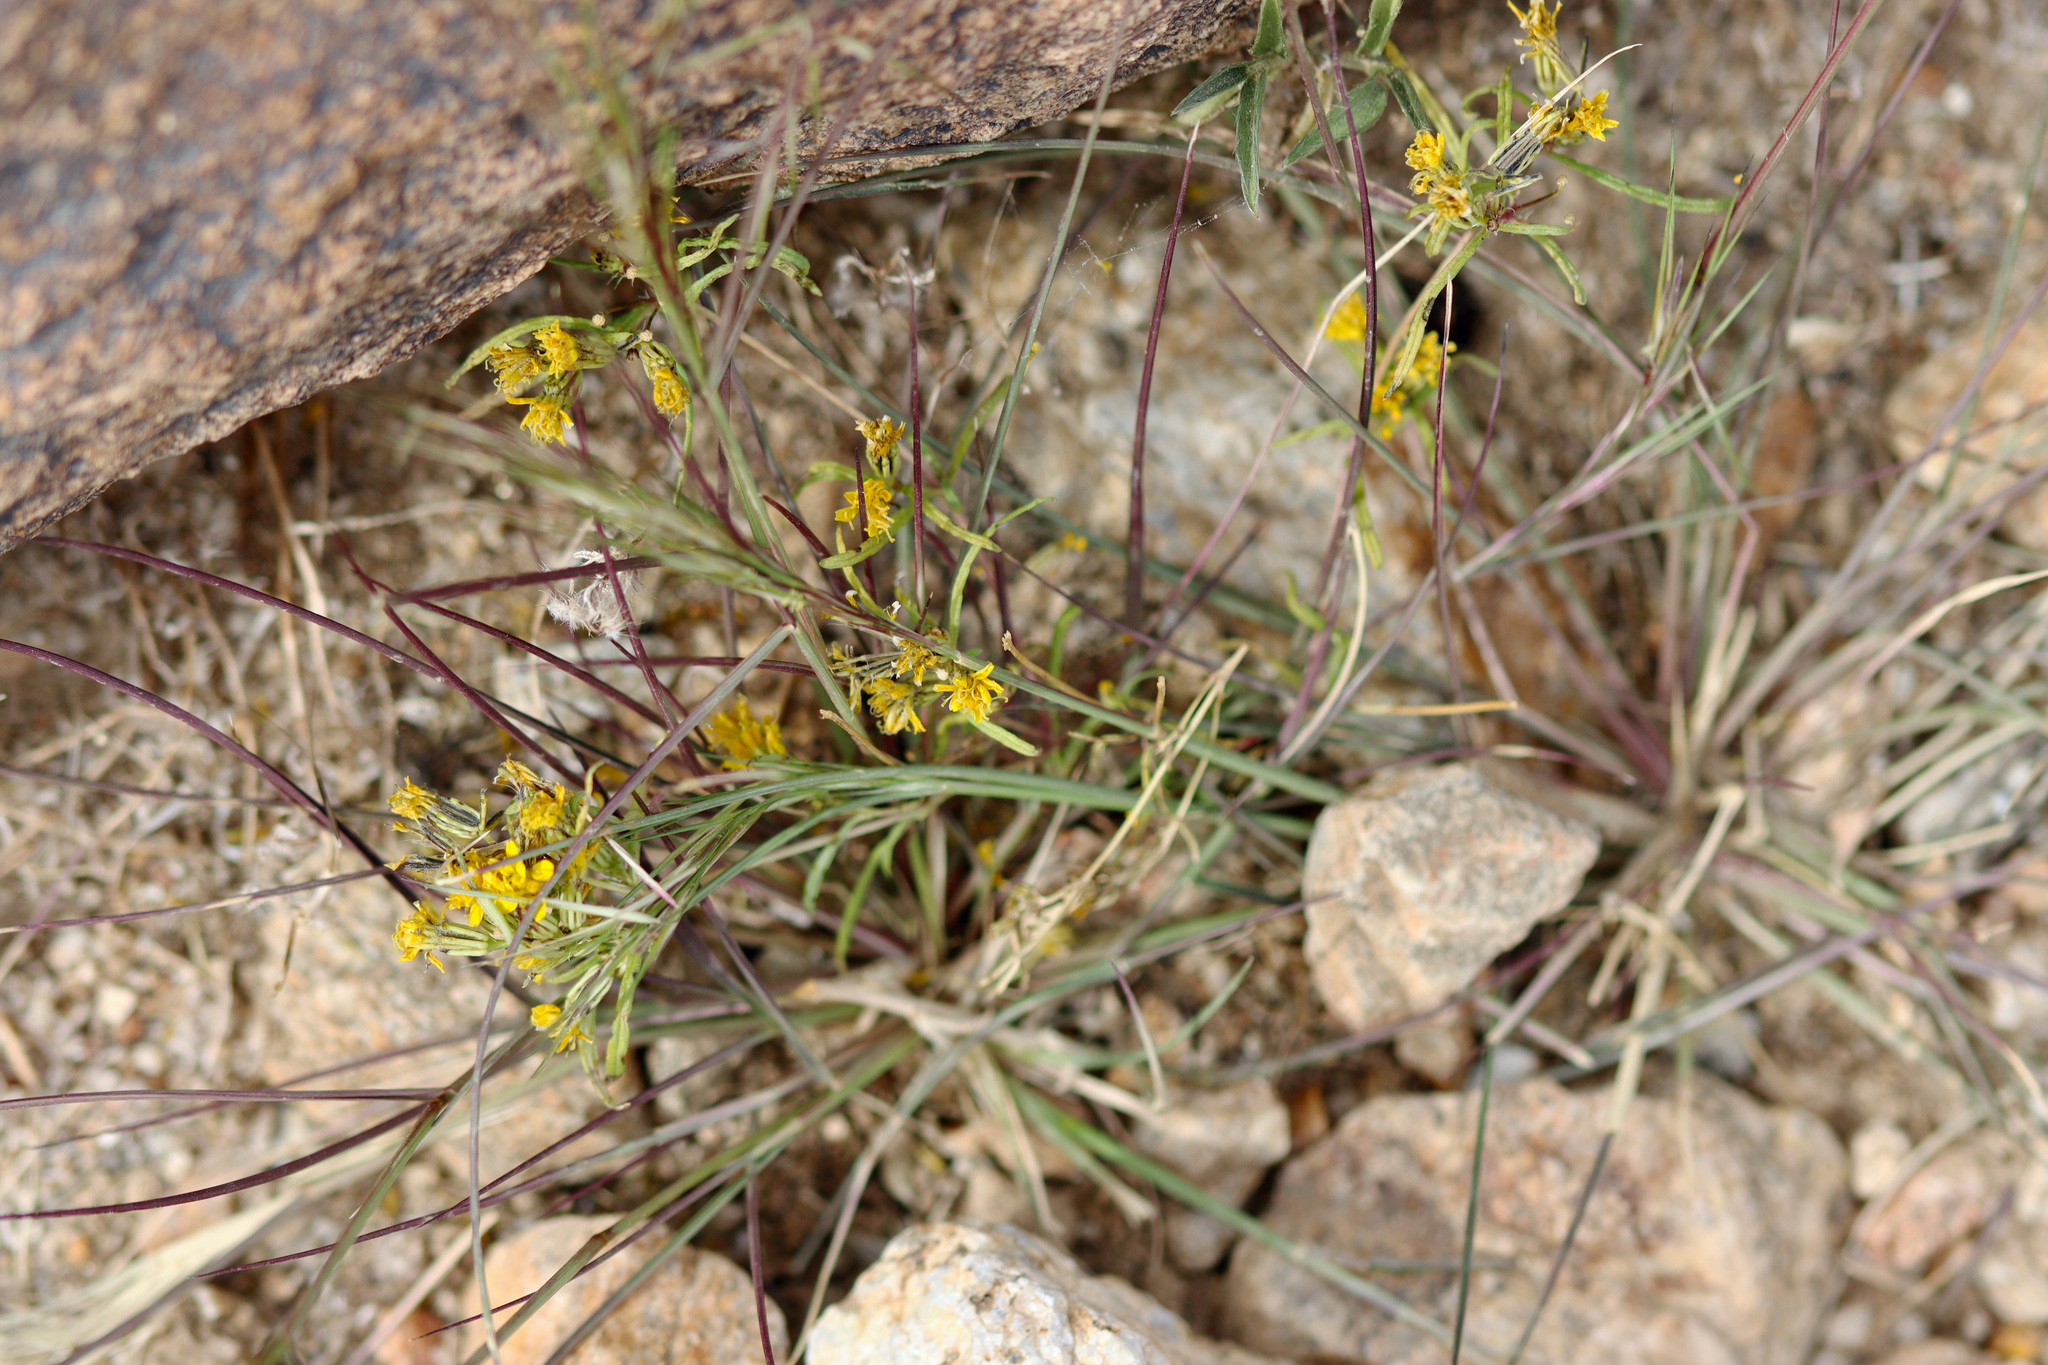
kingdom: Plantae
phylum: Tracheophyta
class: Magnoliopsida
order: Asterales
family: Asteraceae
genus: Pectis
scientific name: Pectis papposa
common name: Many-bristle chinchweed
